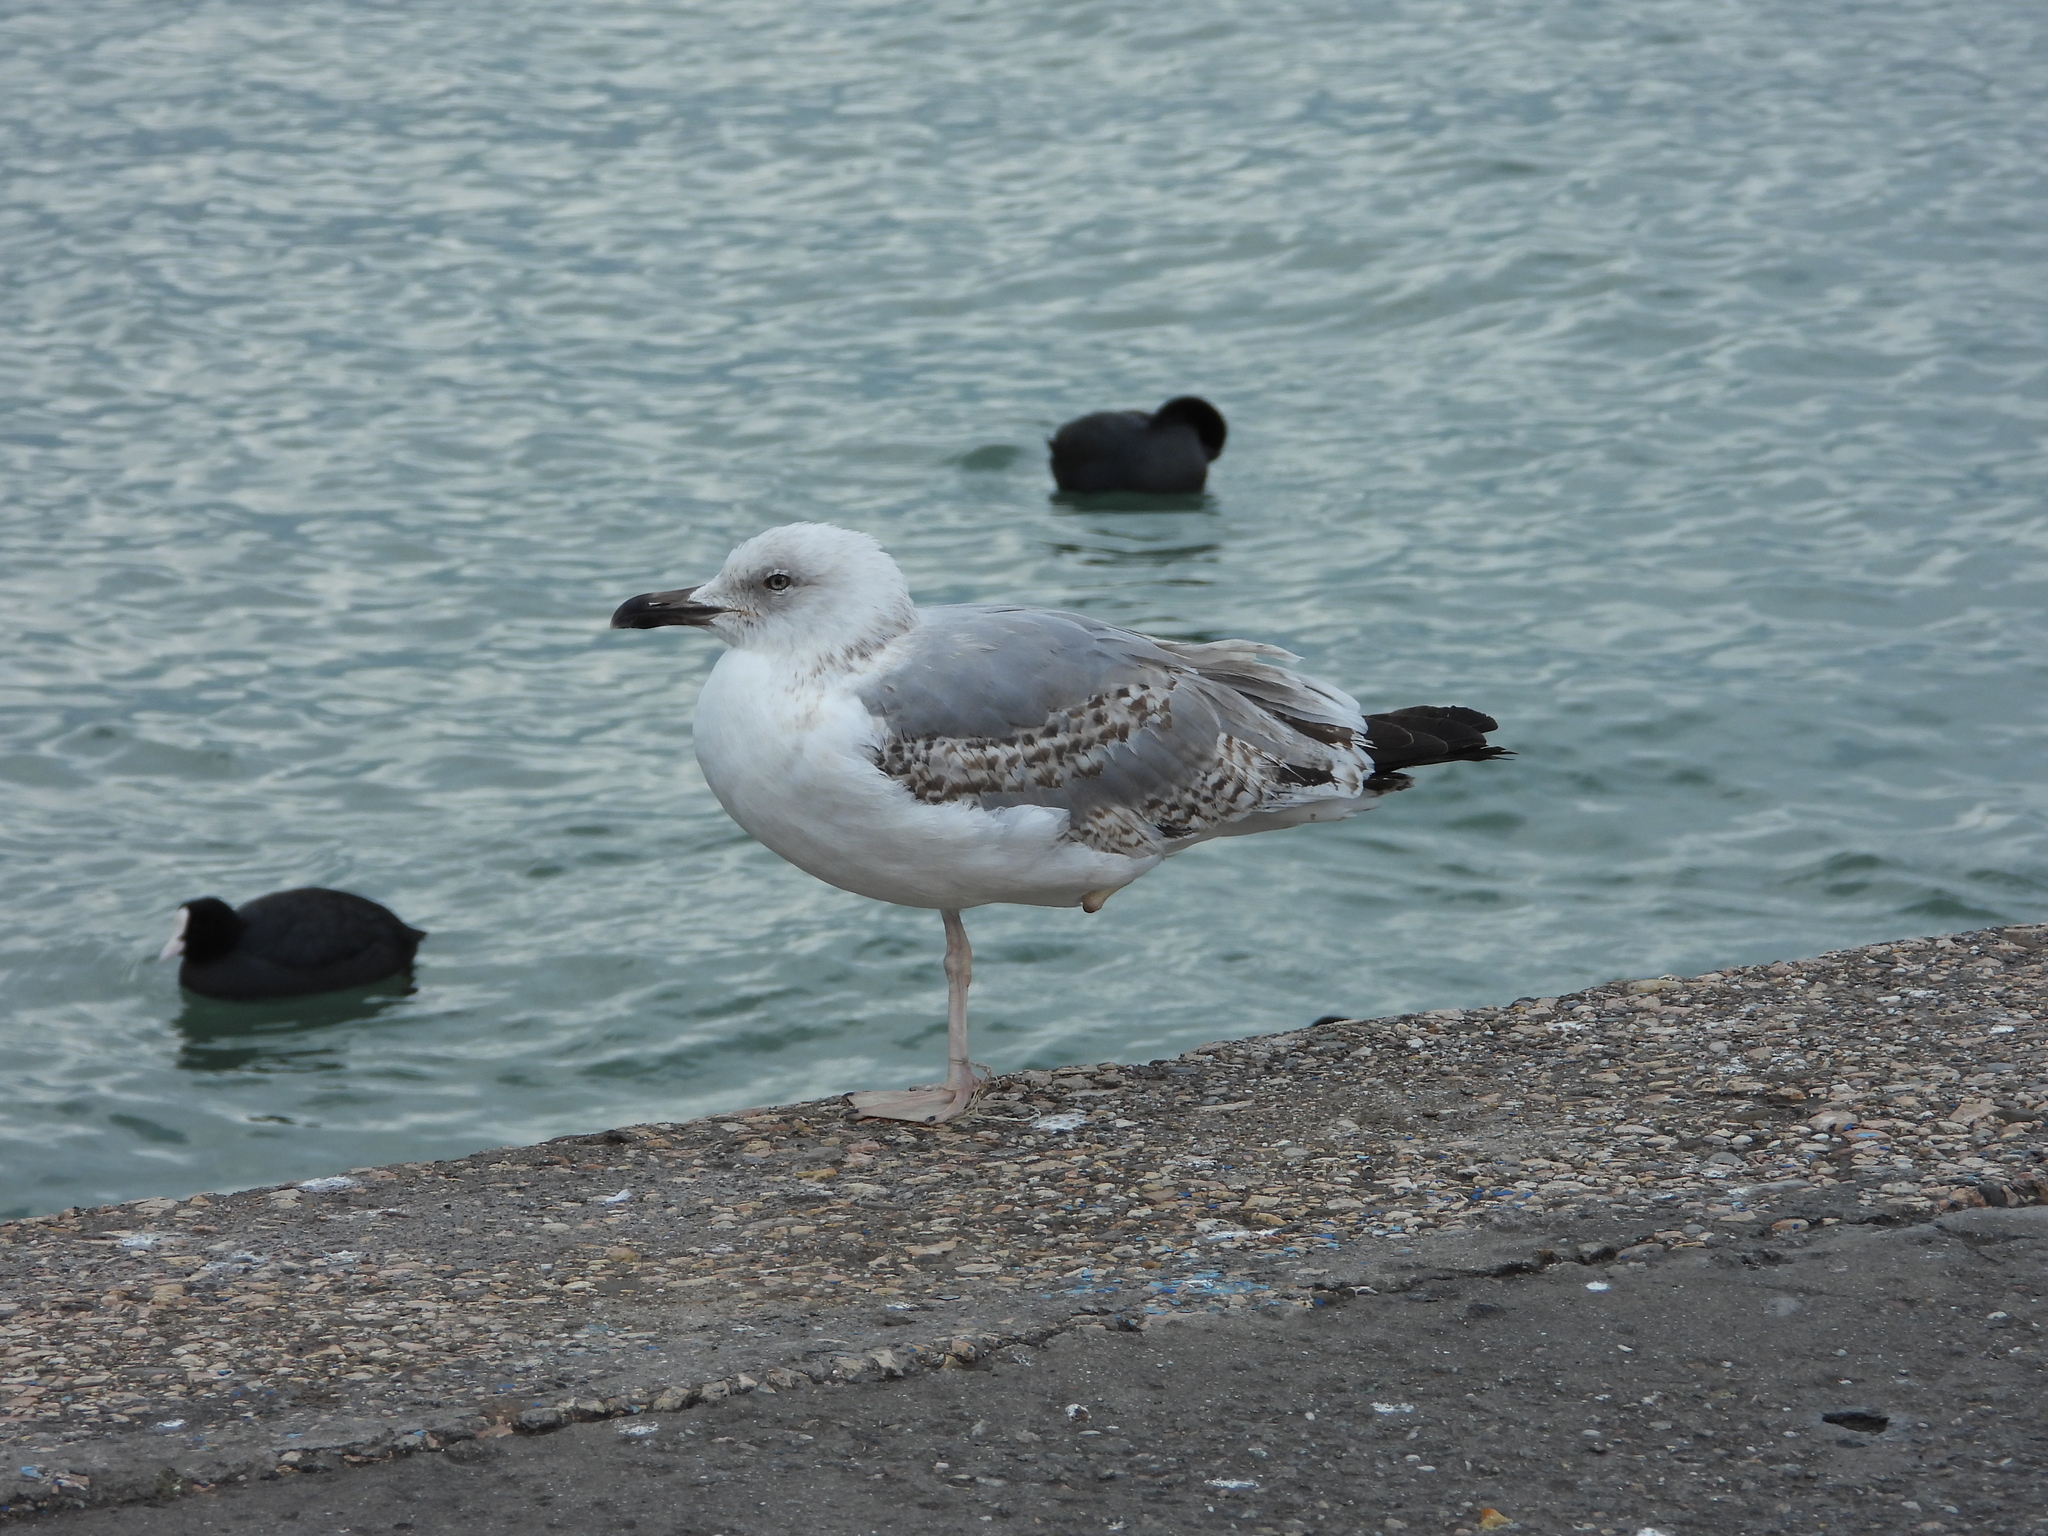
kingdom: Animalia
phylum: Chordata
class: Aves
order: Charadriiformes
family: Laridae
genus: Larus
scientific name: Larus michahellis
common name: Yellow-legged gull
